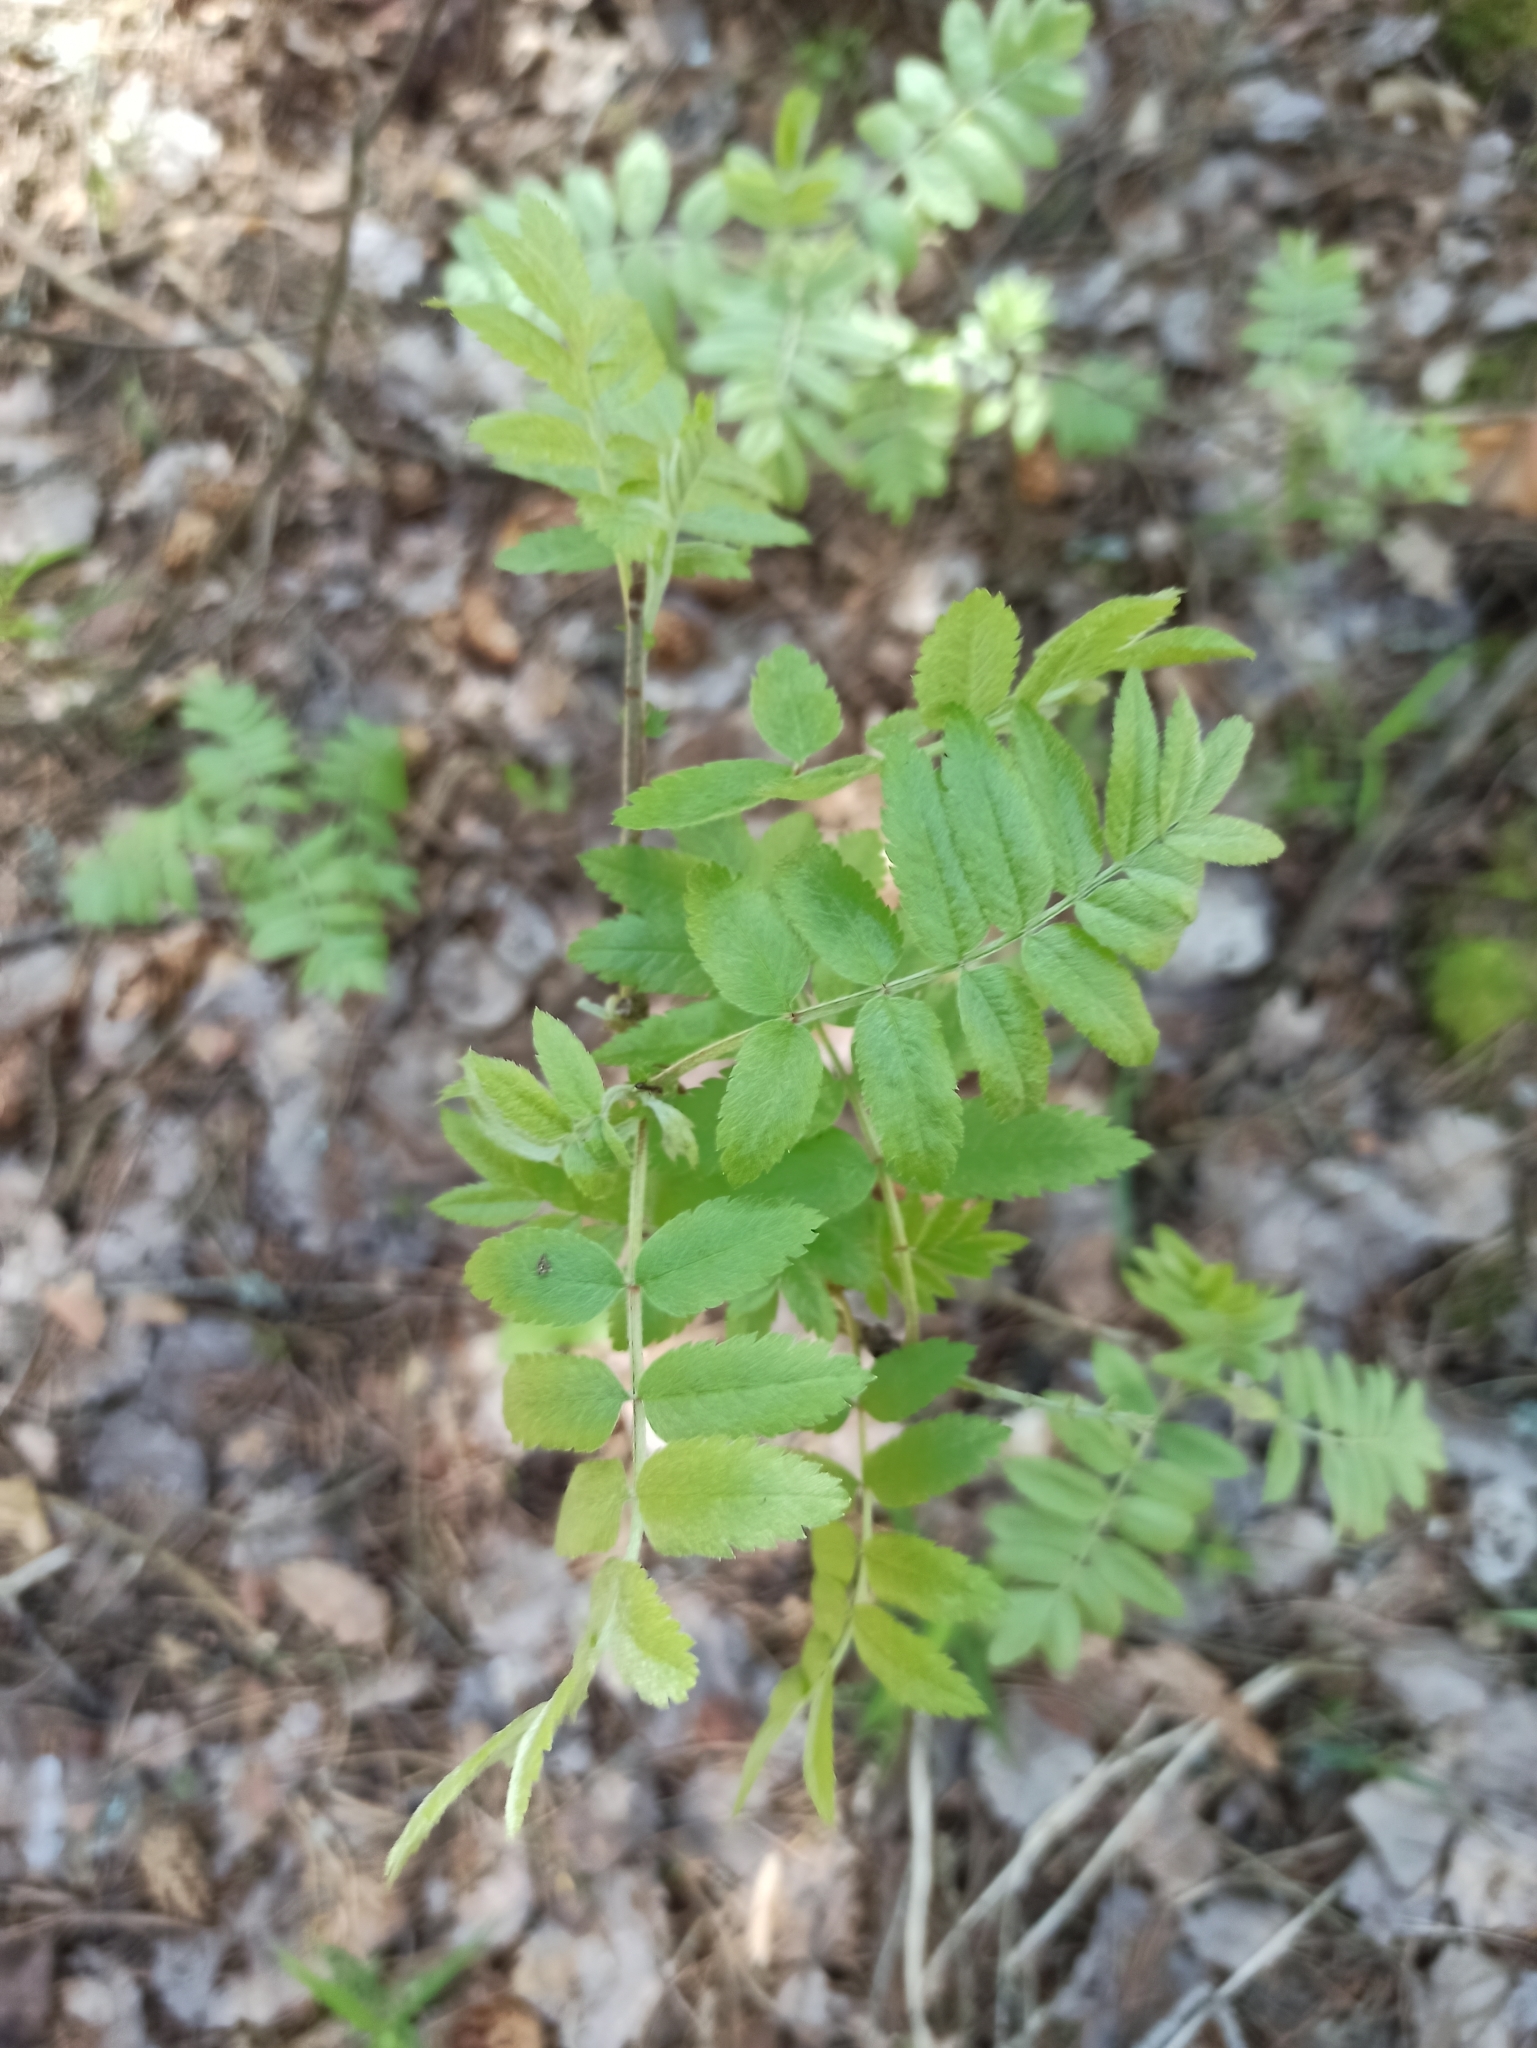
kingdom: Plantae
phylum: Tracheophyta
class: Magnoliopsida
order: Rosales
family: Rosaceae
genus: Sorbus
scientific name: Sorbus aucuparia
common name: Rowan
